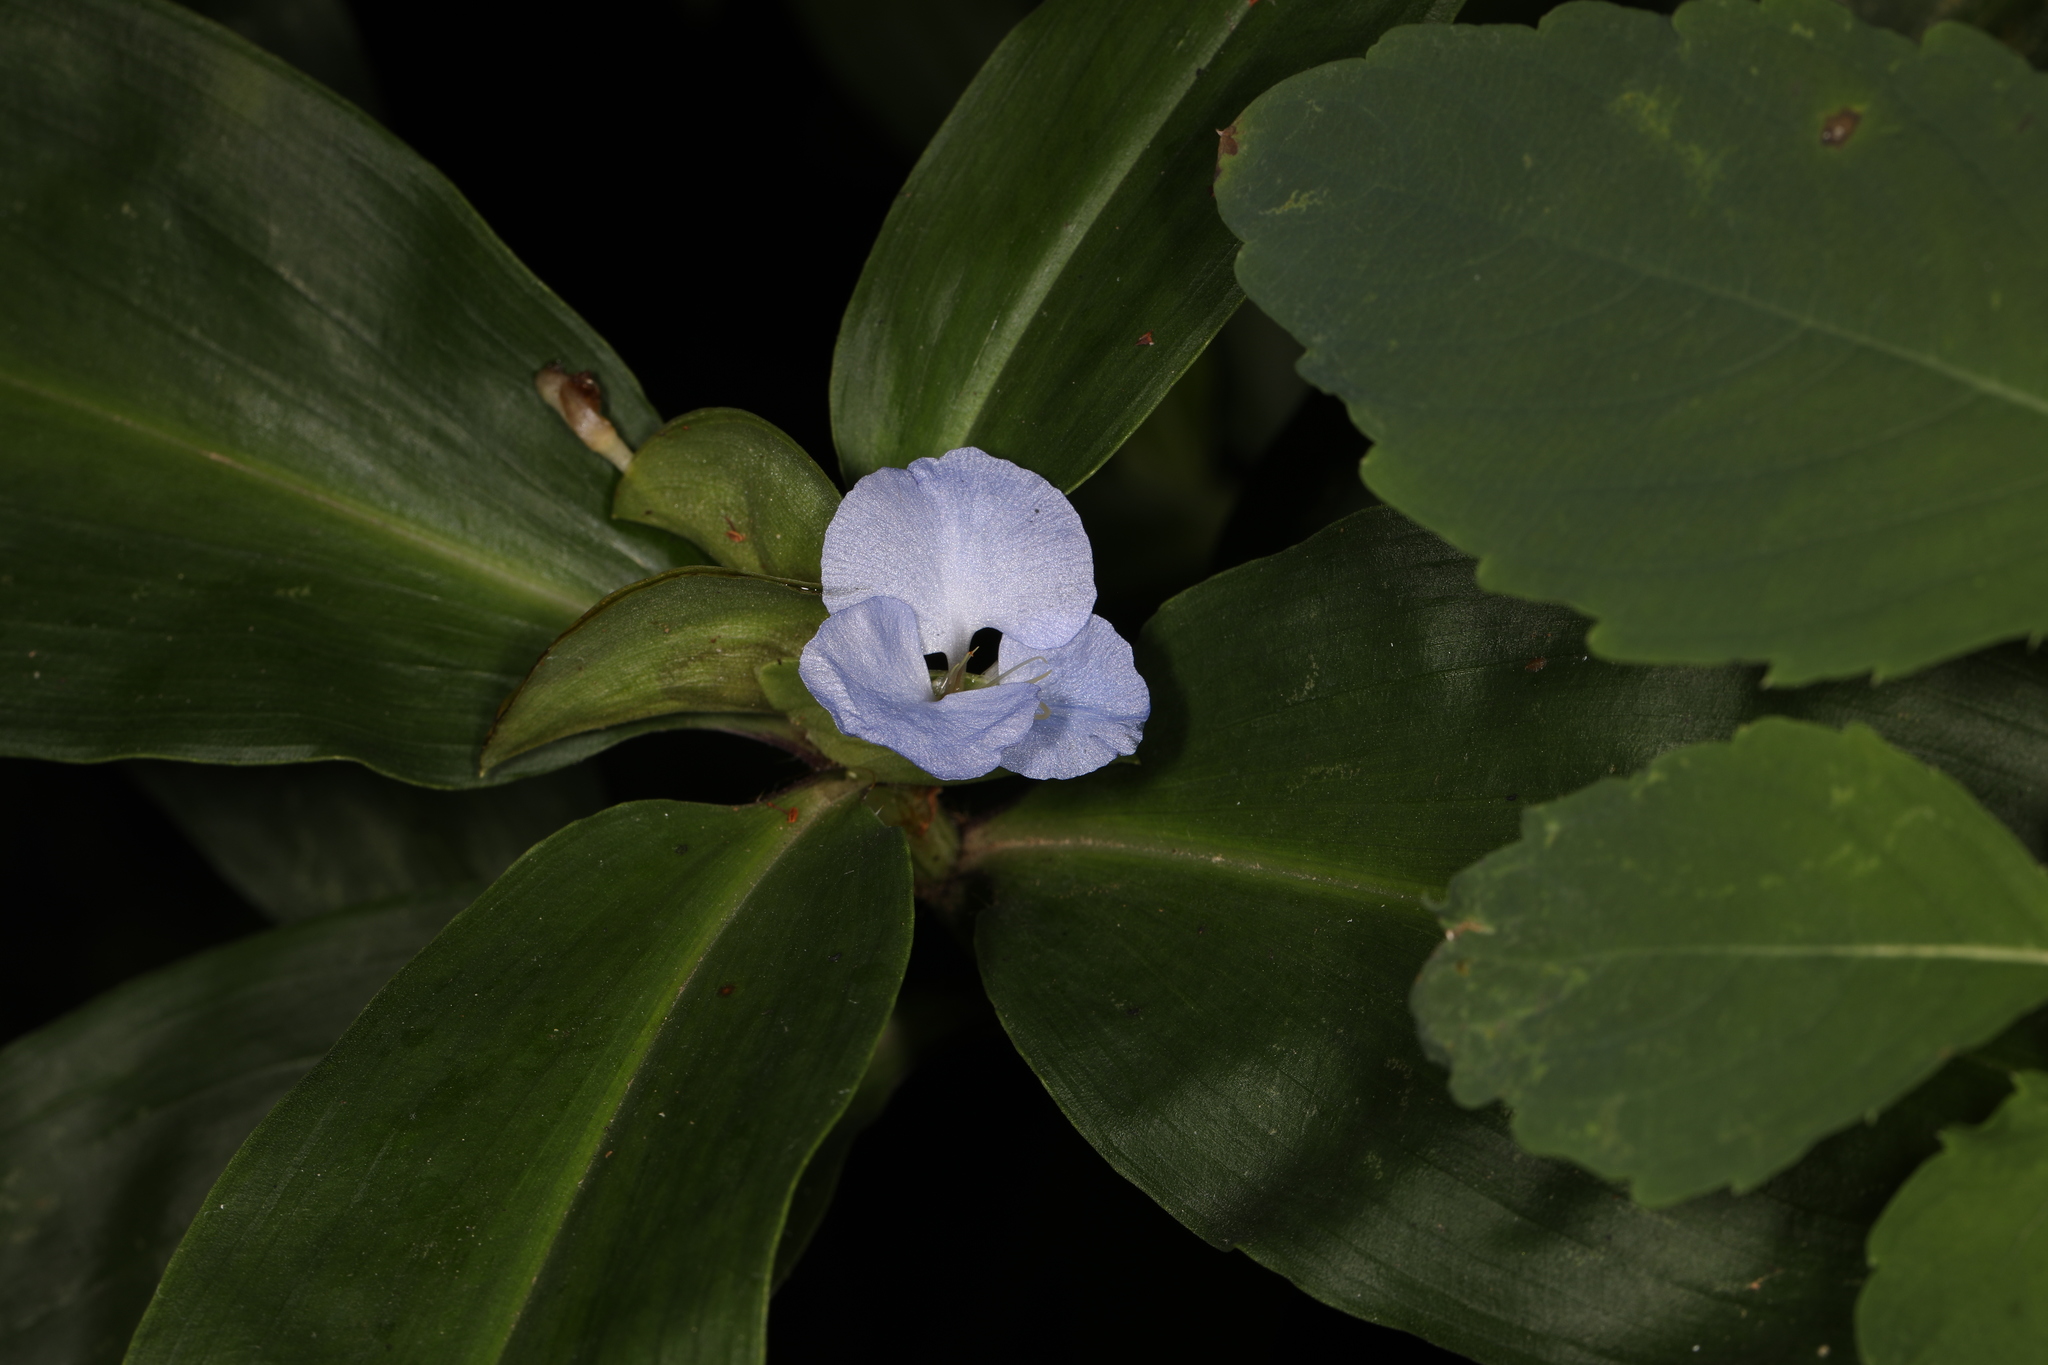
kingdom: Plantae
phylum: Tracheophyta
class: Liliopsida
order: Commelinales
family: Commelinaceae
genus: Commelina
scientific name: Commelina virginica
